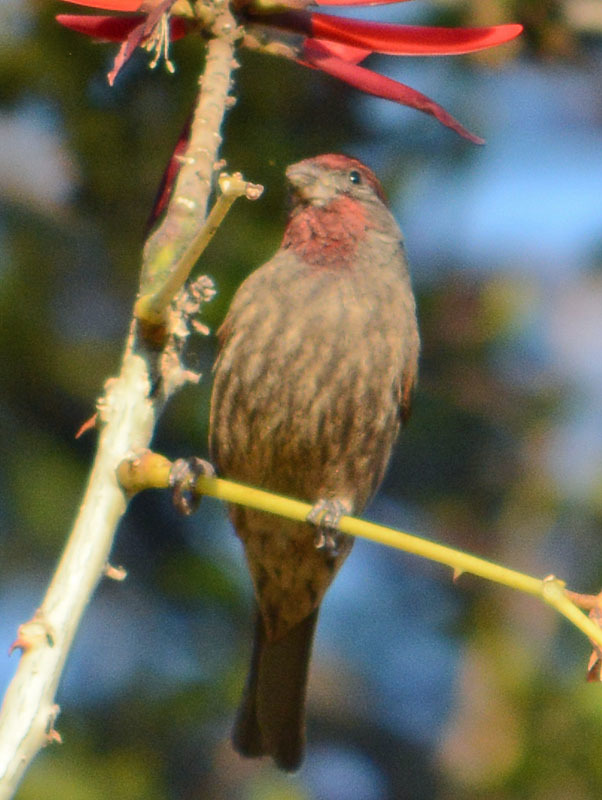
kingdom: Animalia
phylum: Chordata
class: Aves
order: Passeriformes
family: Fringillidae
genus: Haemorhous
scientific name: Haemorhous mexicanus
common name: House finch
